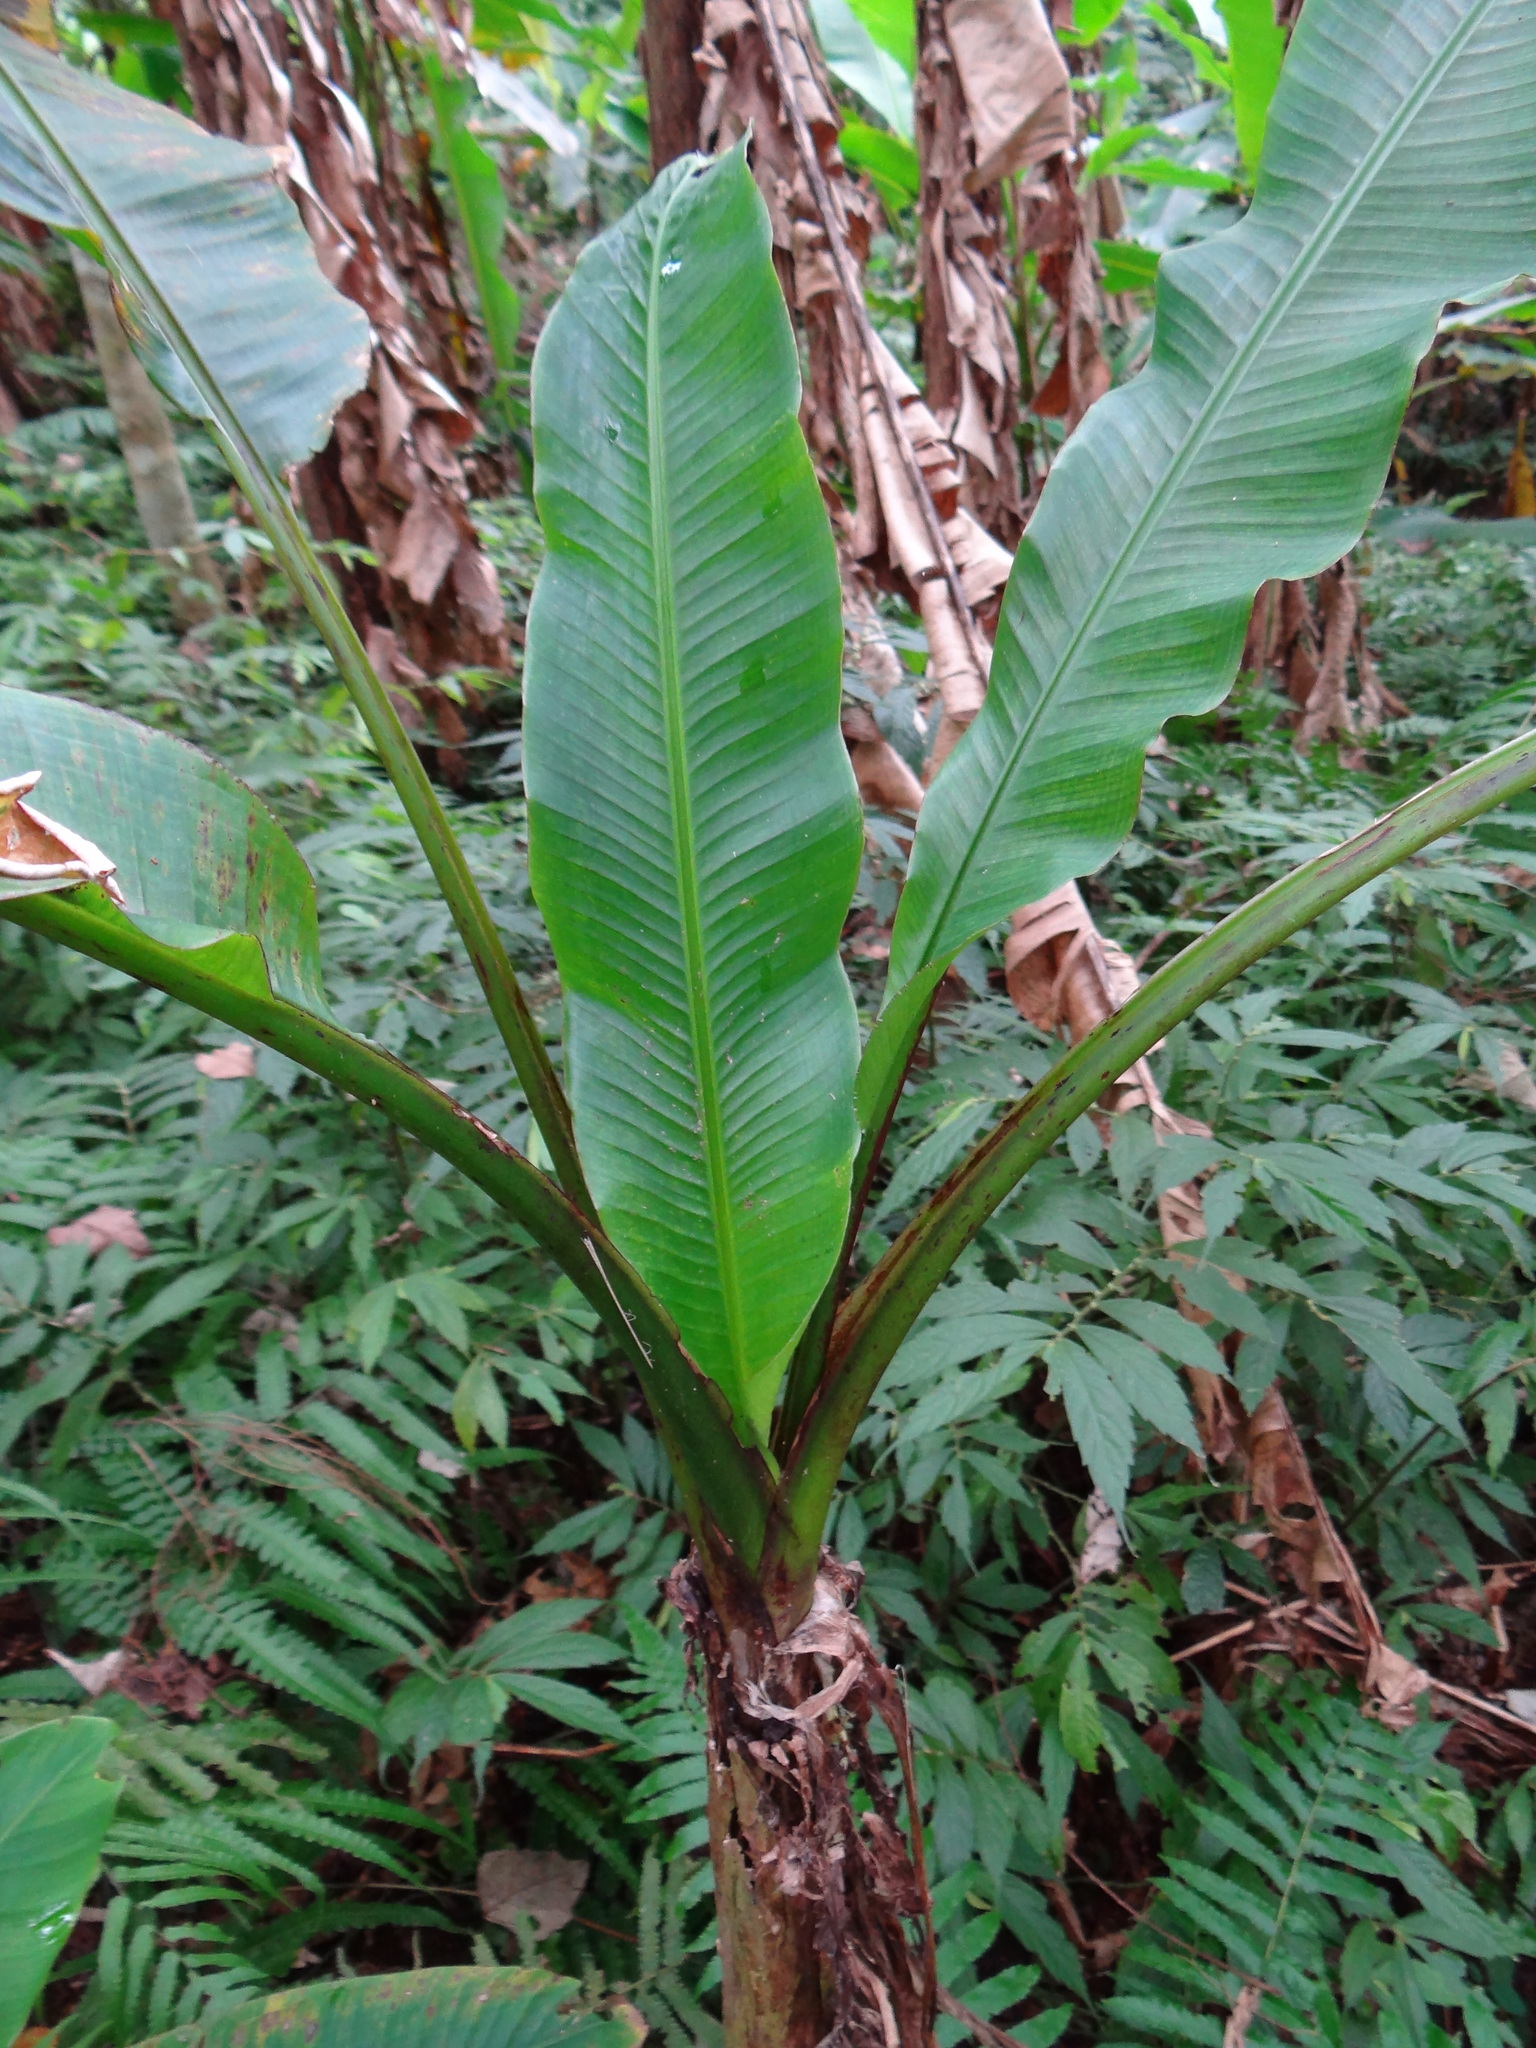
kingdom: Plantae
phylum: Tracheophyta
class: Liliopsida
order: Zingiberales
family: Musaceae
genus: Musa
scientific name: Musa itinerans
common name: Yunnan banana
